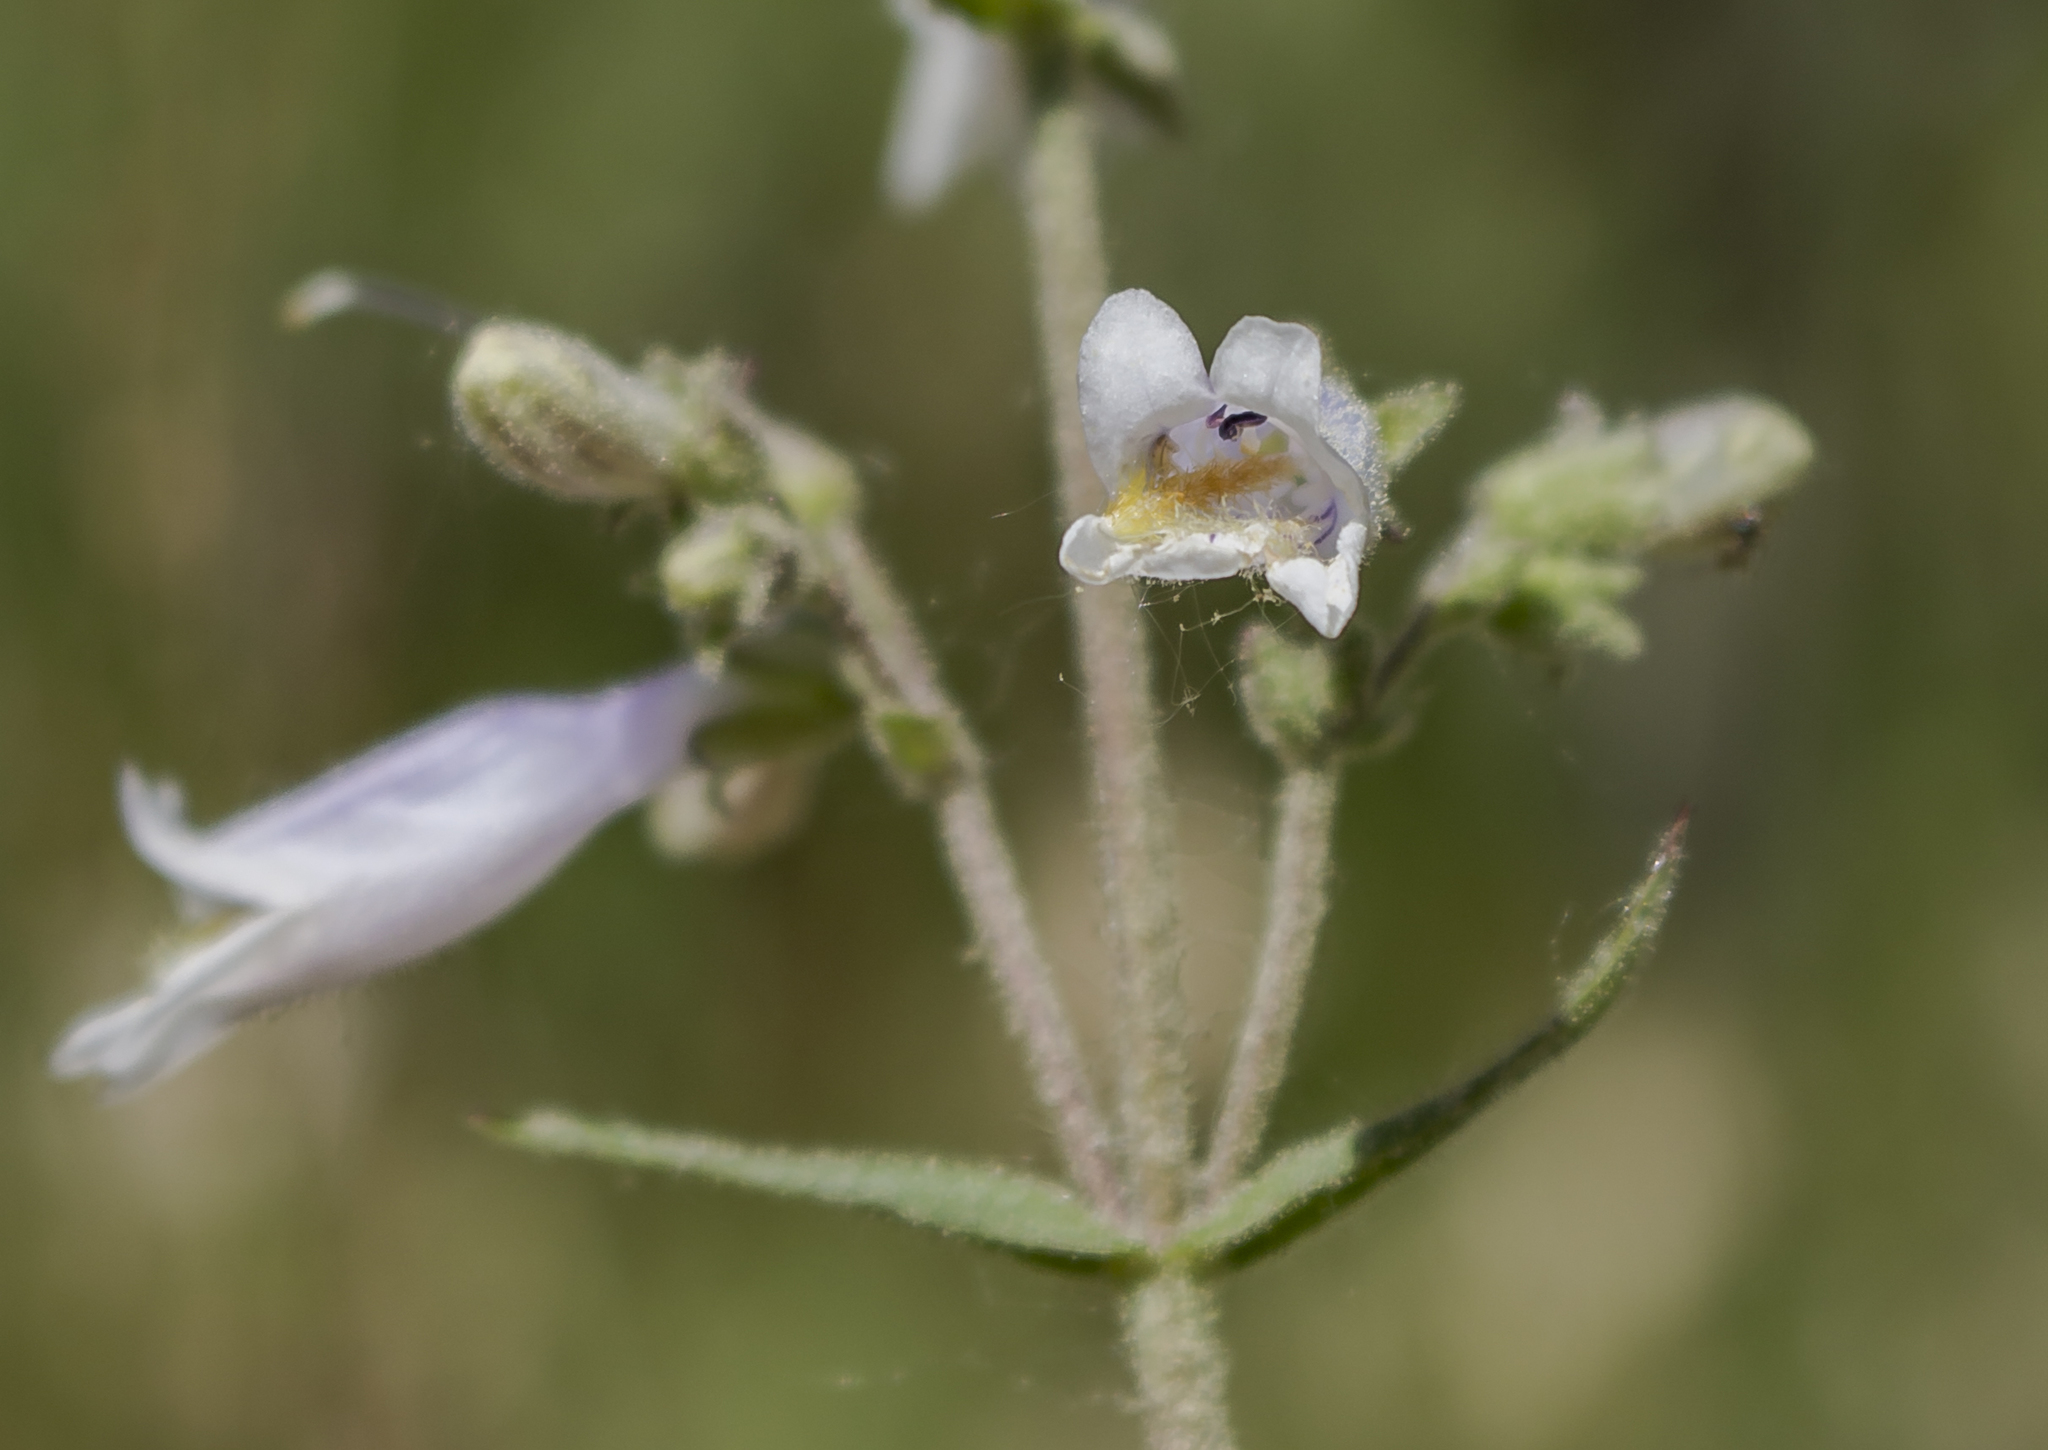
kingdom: Plantae
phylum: Tracheophyta
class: Magnoliopsida
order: Lamiales
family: Plantaginaceae
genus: Penstemon
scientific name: Penstemon gracilis
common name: Slender beardtongue
